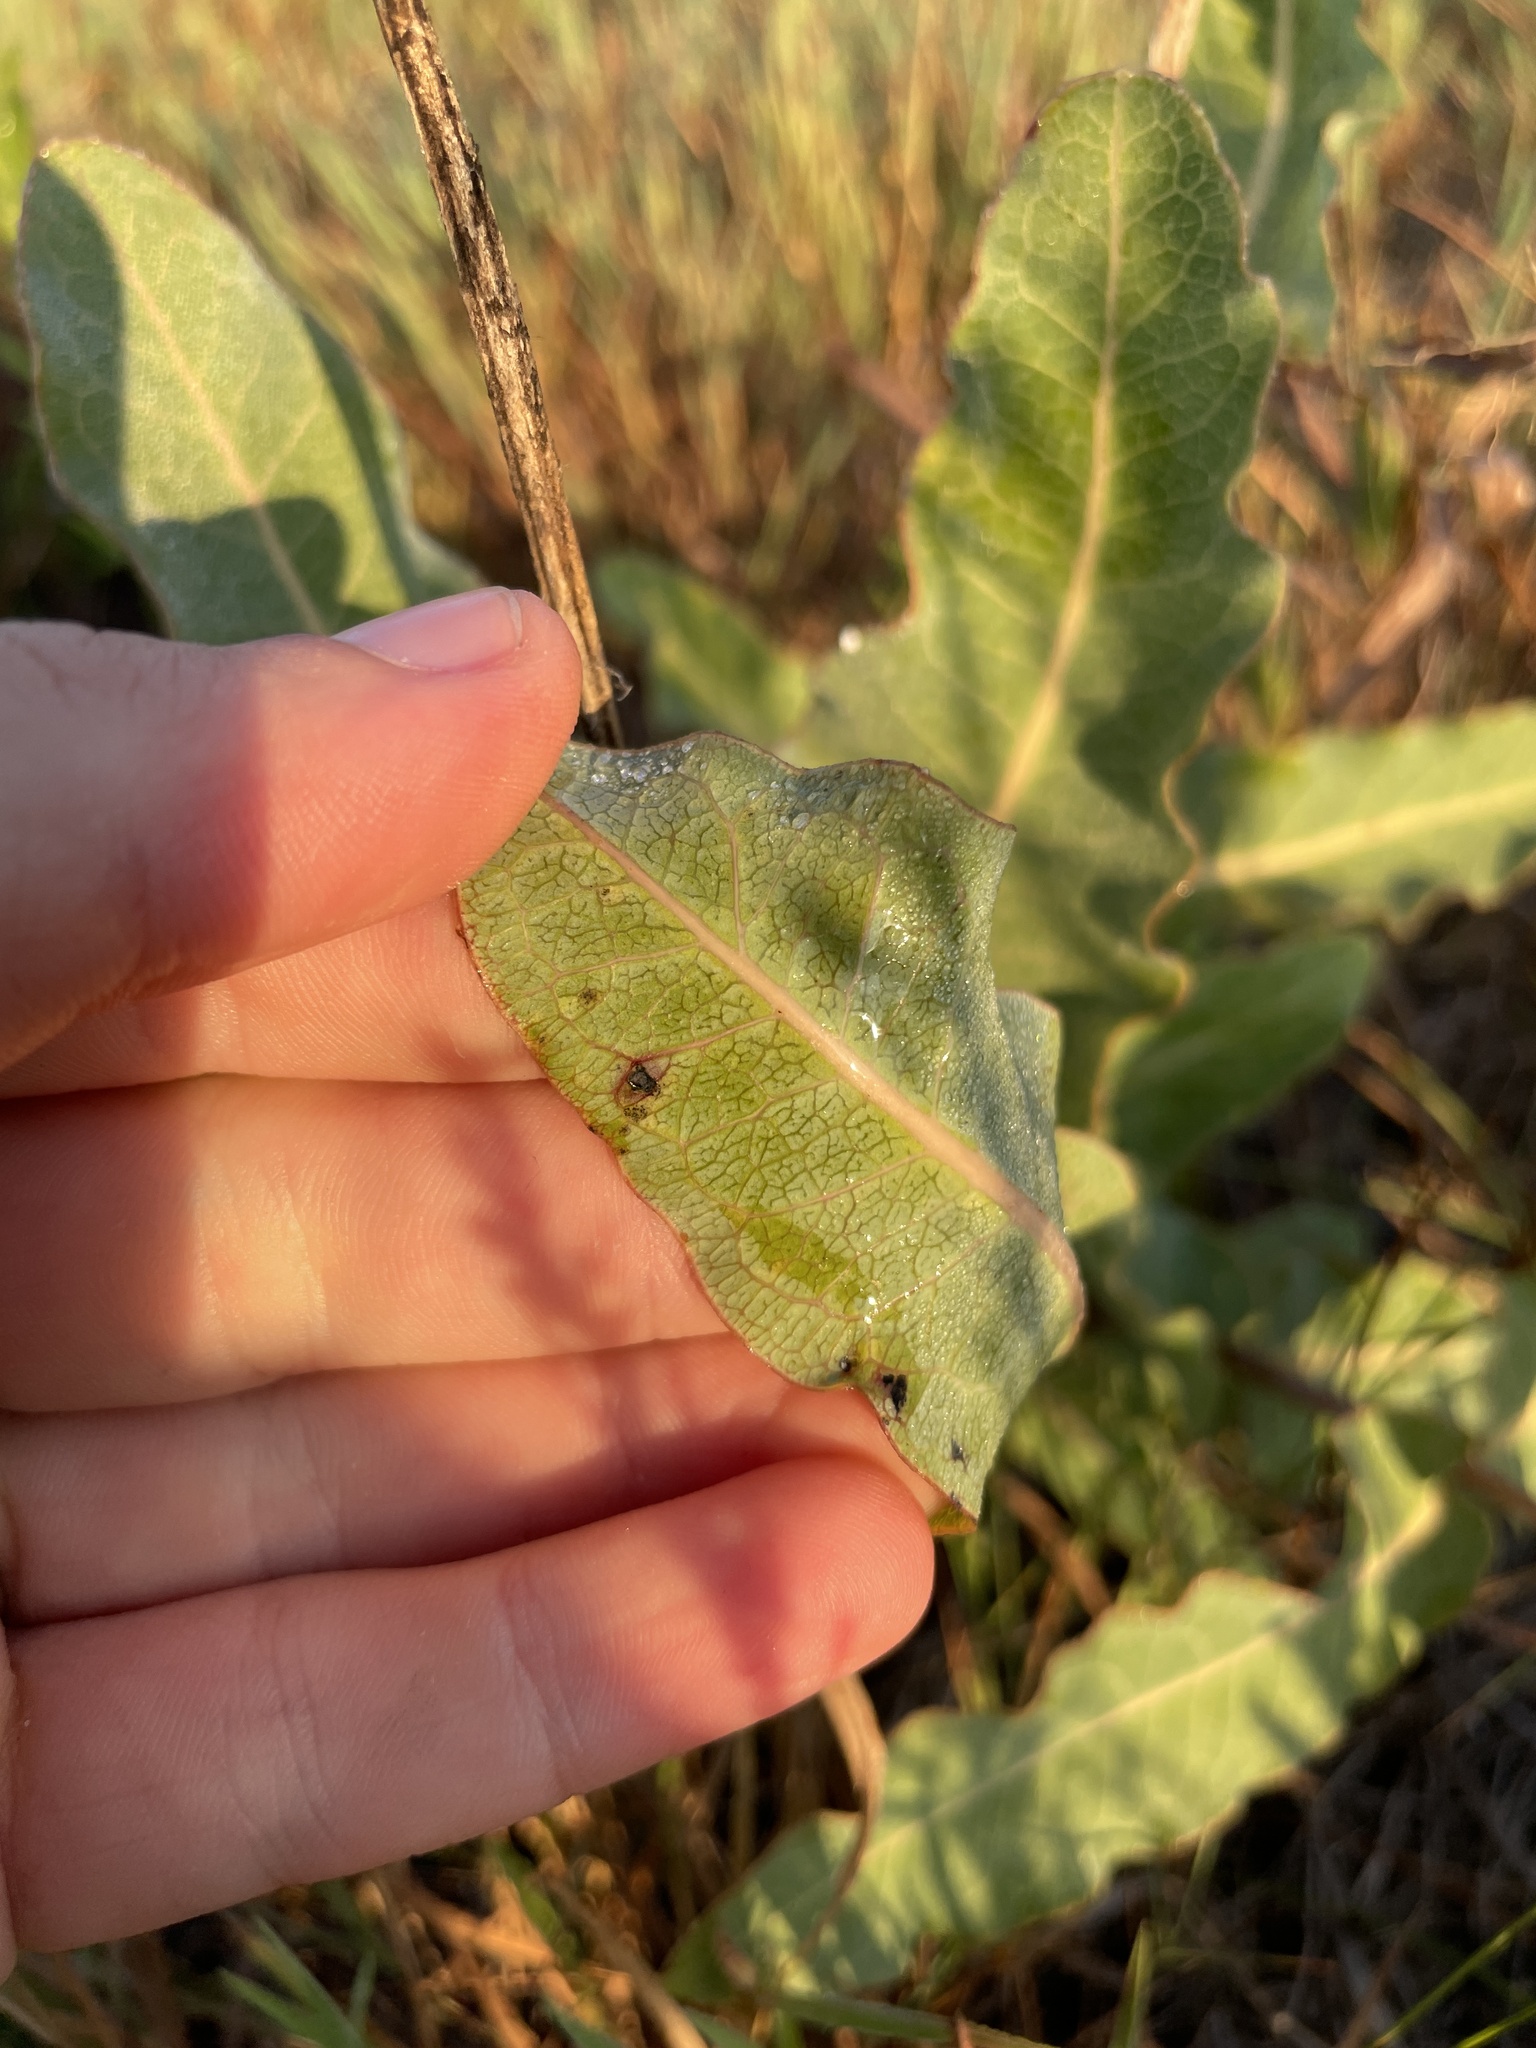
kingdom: Plantae
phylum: Tracheophyta
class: Magnoliopsida
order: Gentianales
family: Apocynaceae
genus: Asclepias
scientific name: Asclepias amplexicaulis
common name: Blunt-leaf milkweed
